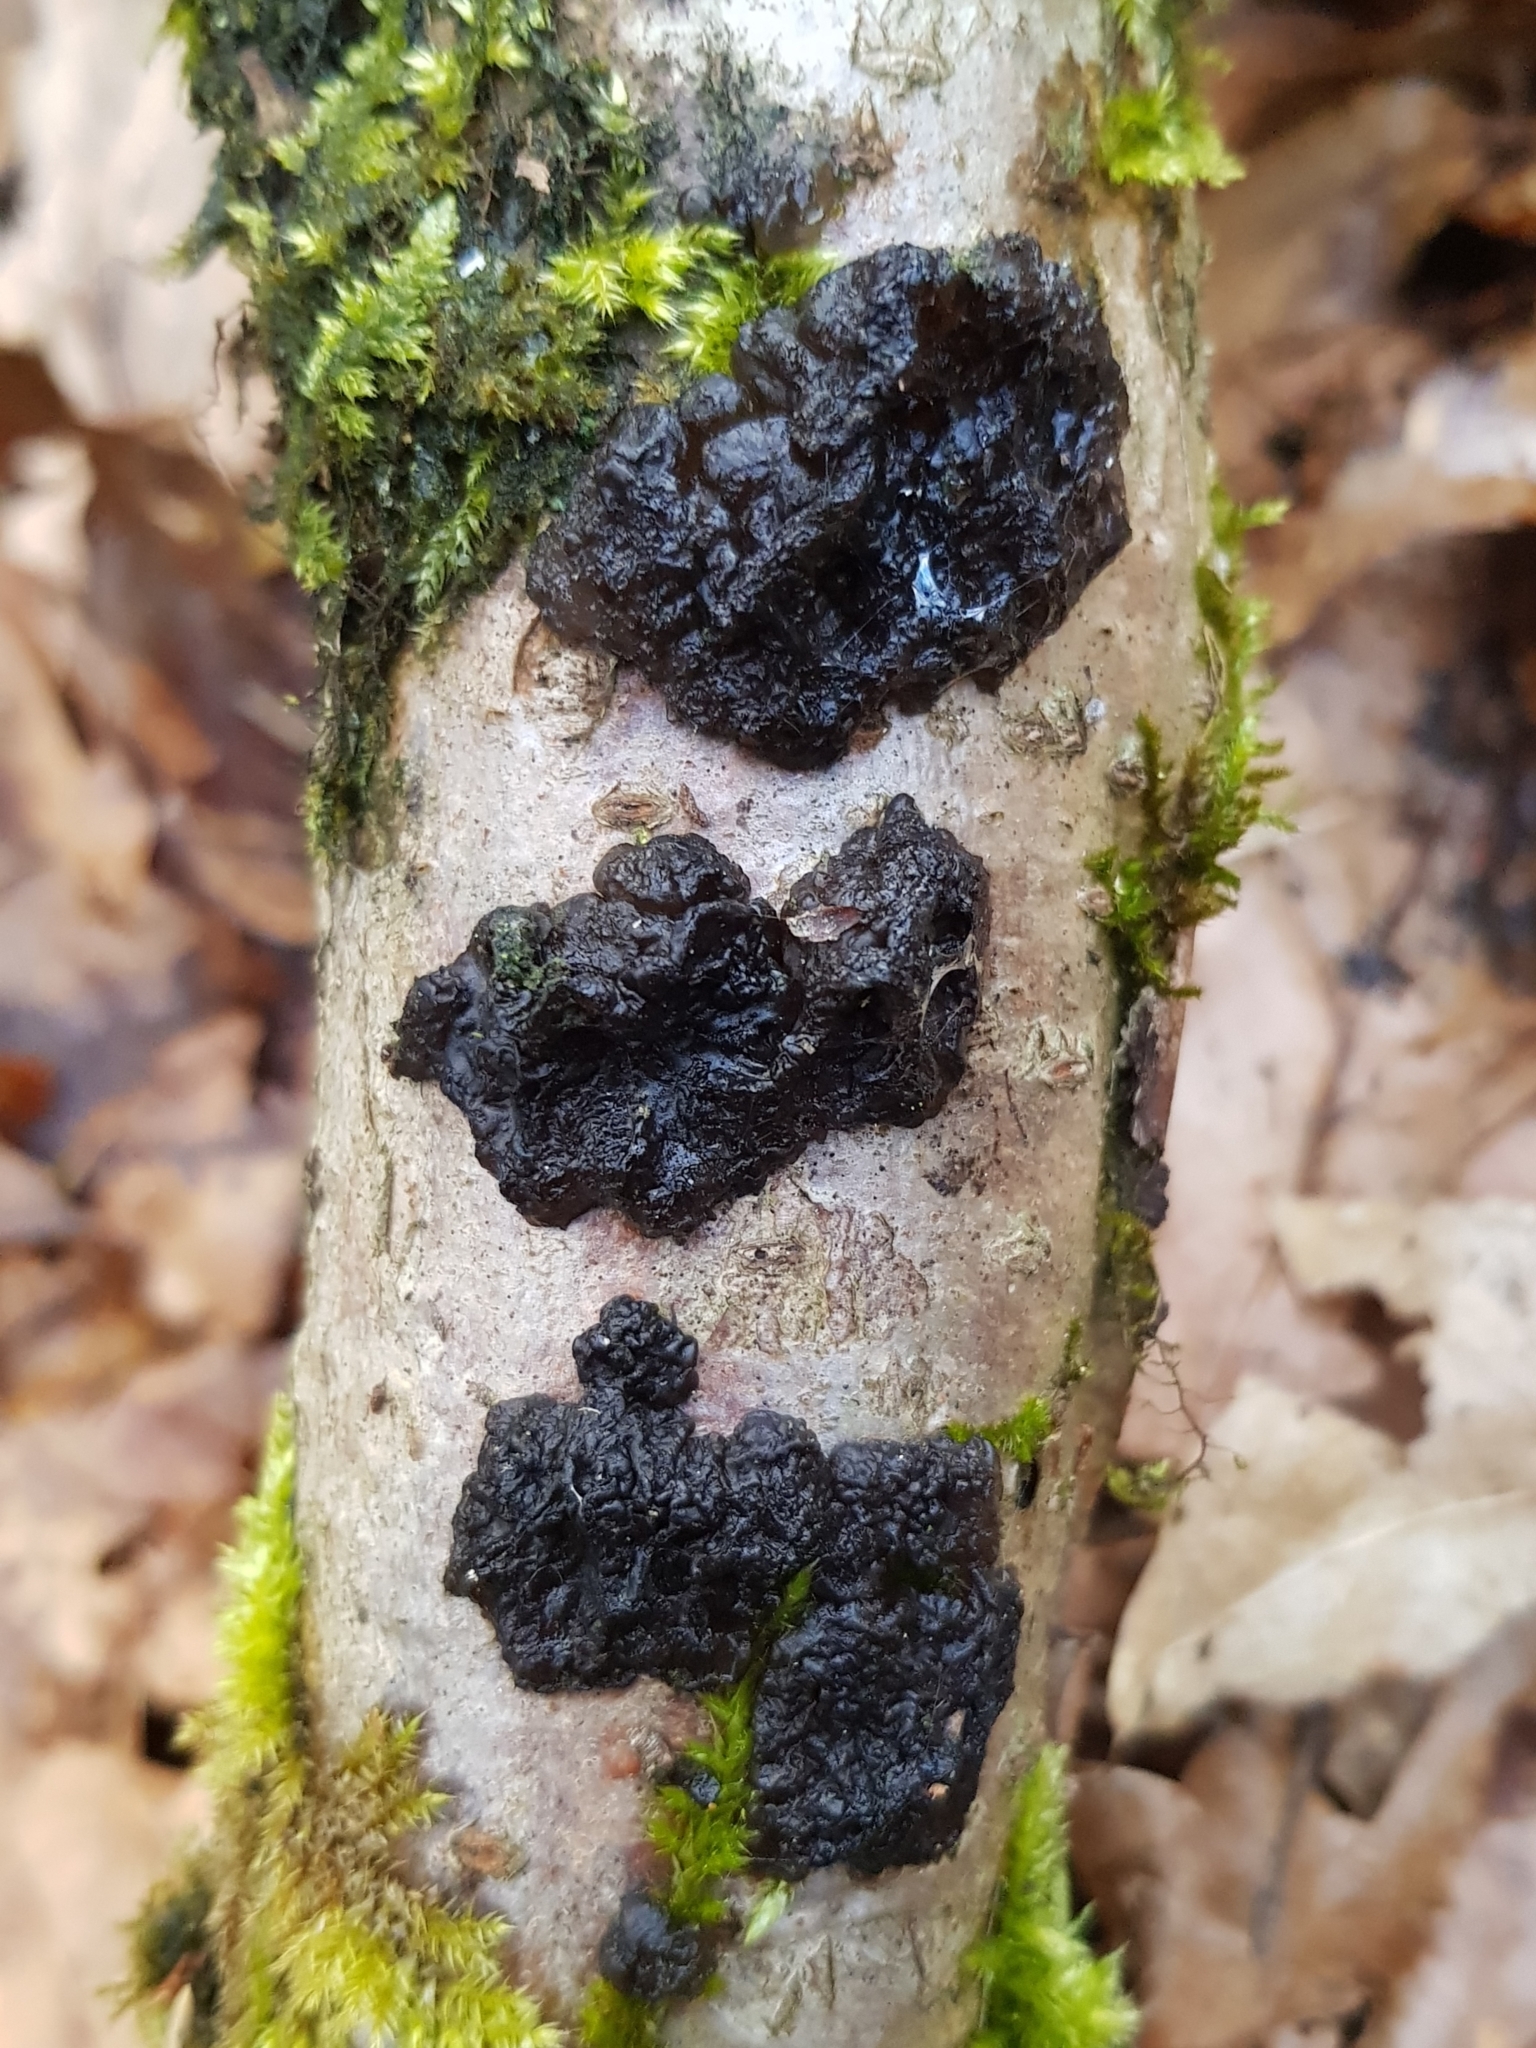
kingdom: Fungi
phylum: Basidiomycota
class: Agaricomycetes
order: Auriculariales
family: Auriculariaceae
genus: Exidia
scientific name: Exidia nigricans
